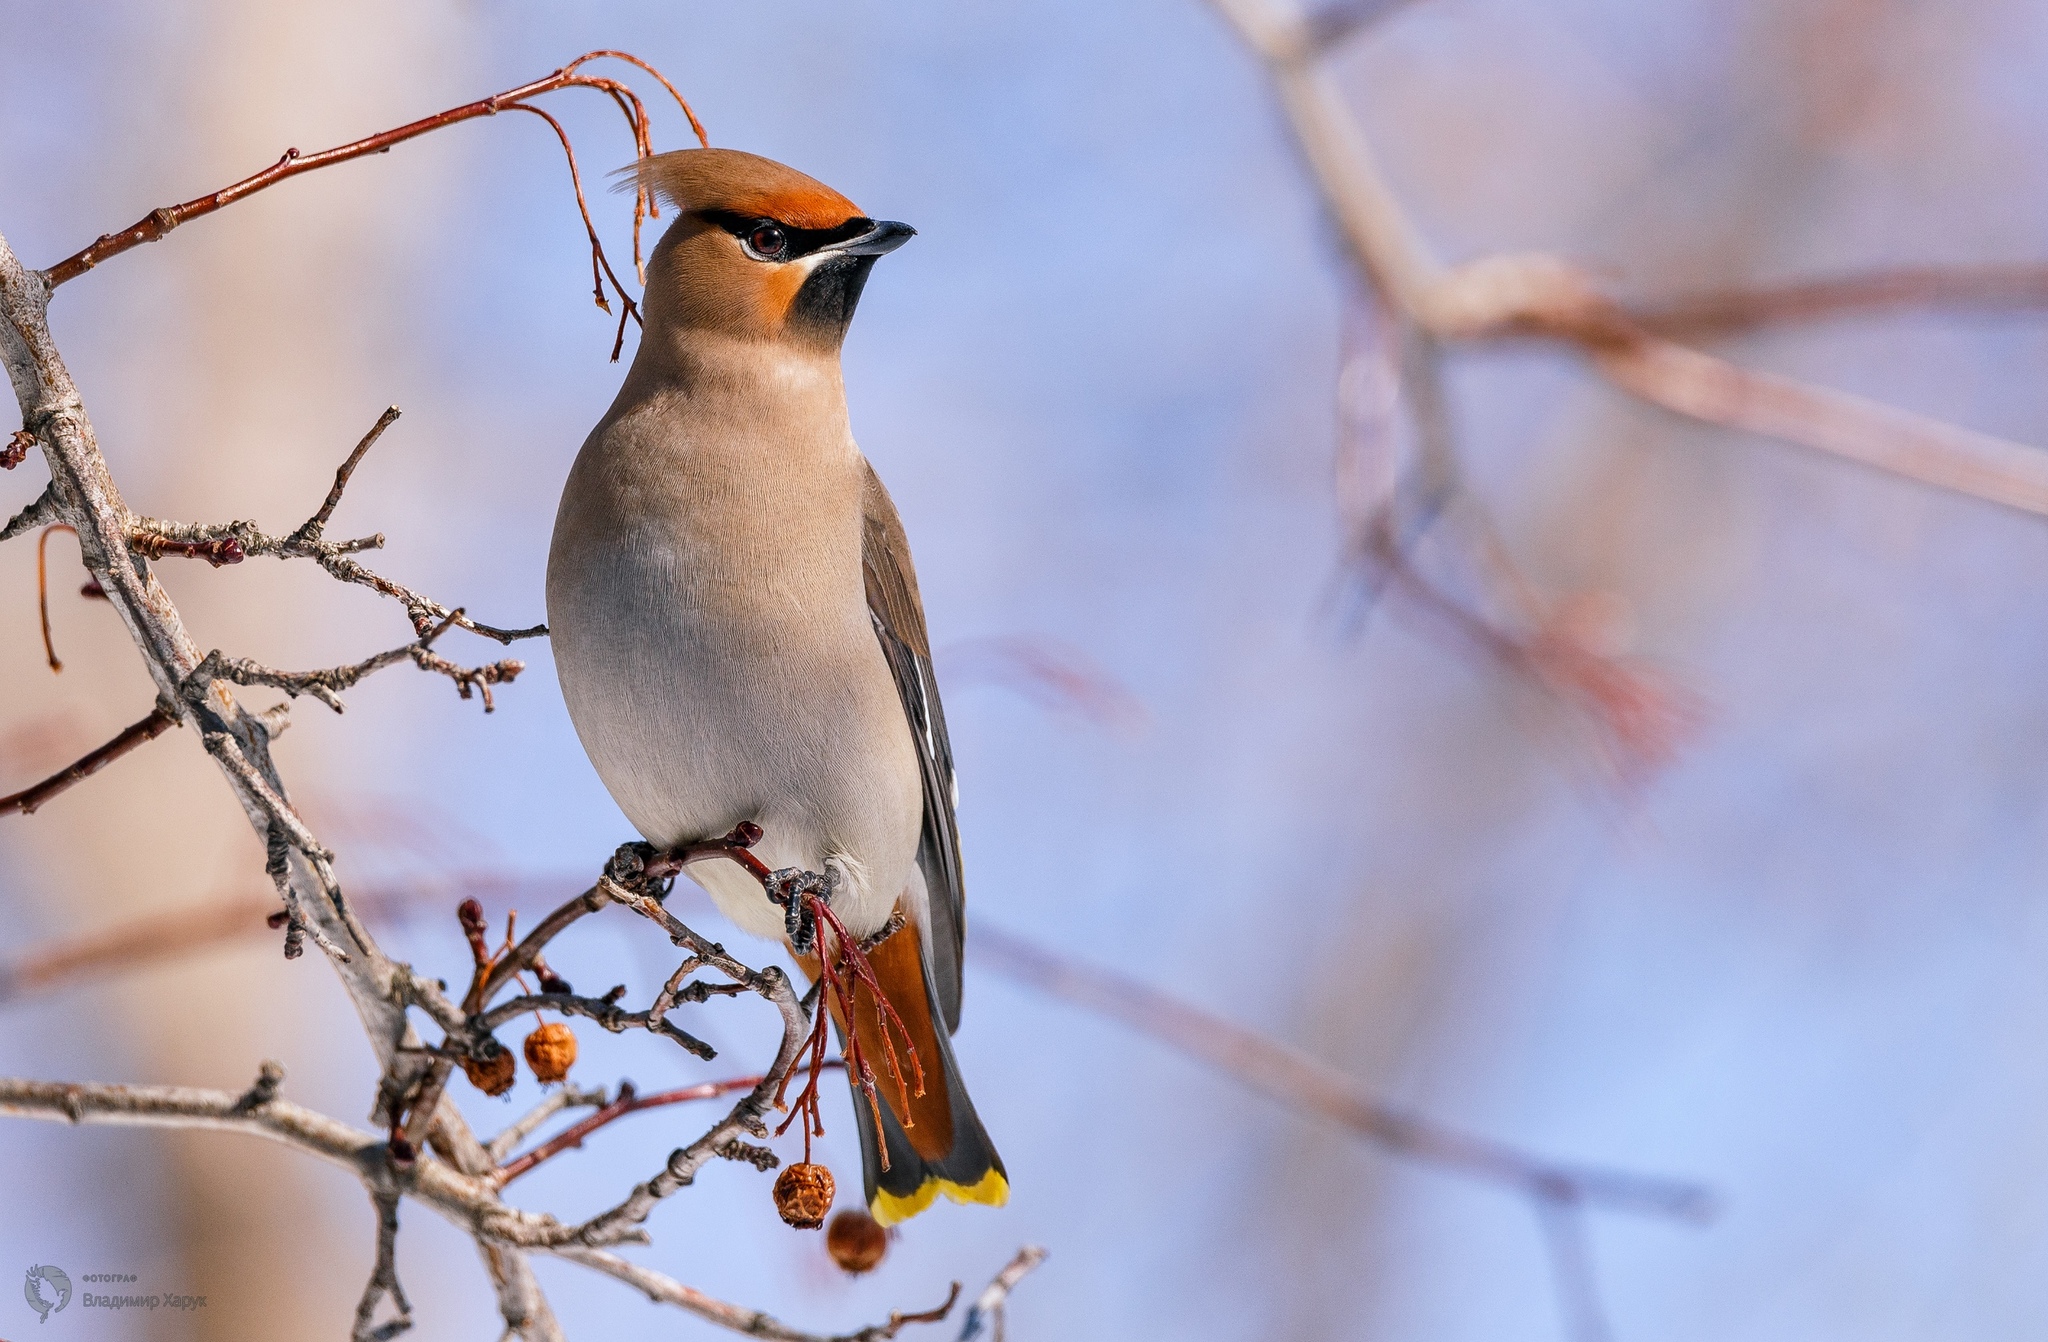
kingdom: Animalia
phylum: Chordata
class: Aves
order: Passeriformes
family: Bombycillidae
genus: Bombycilla
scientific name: Bombycilla garrulus
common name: Bohemian waxwing
